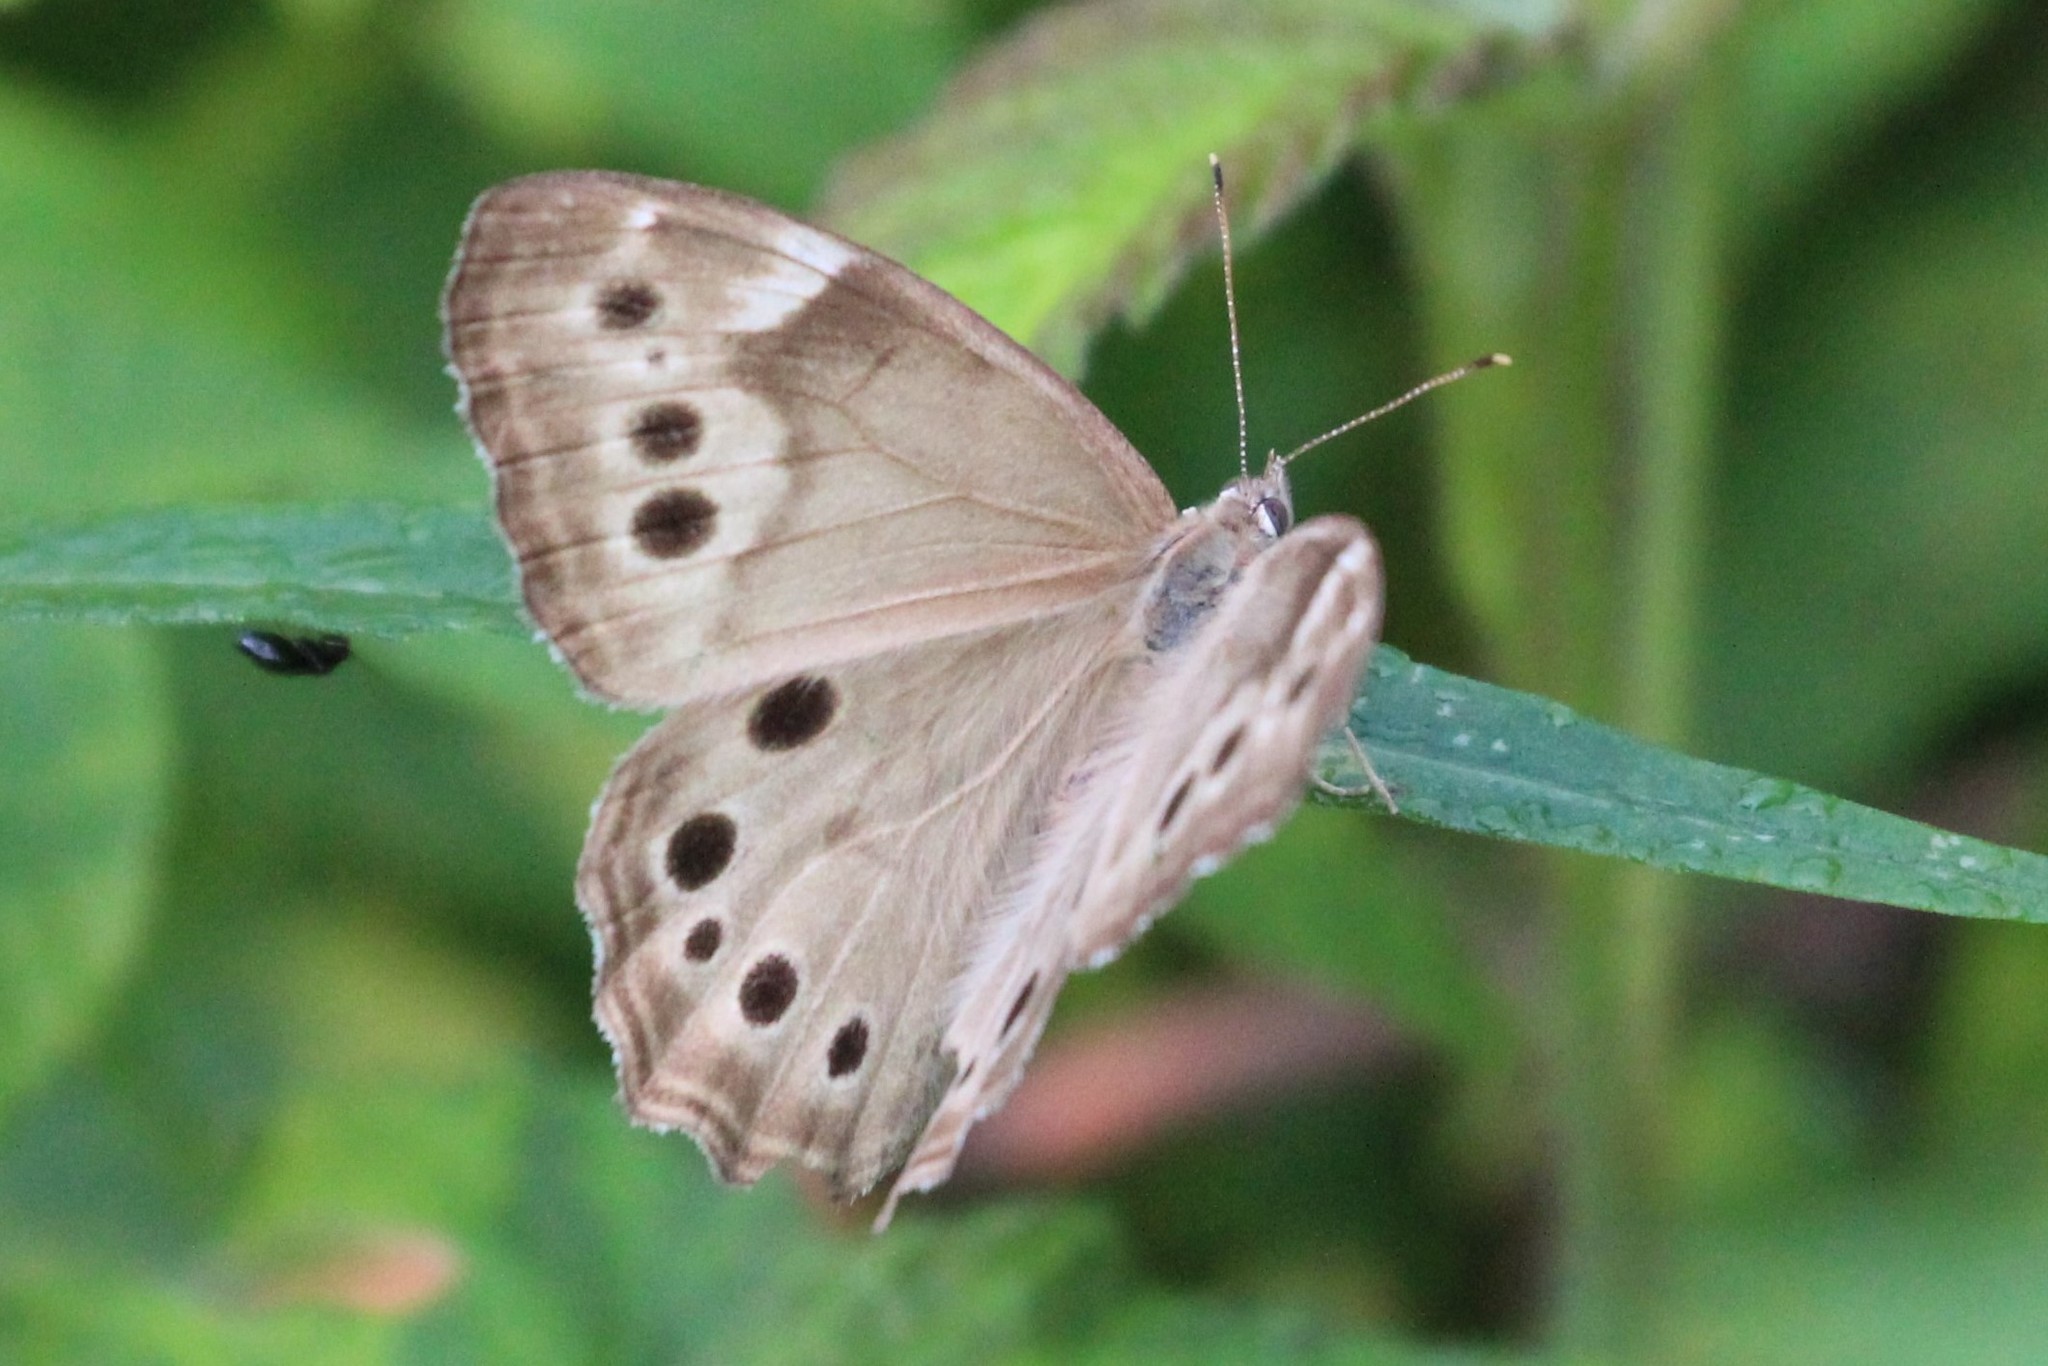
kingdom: Animalia
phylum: Arthropoda
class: Insecta
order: Lepidoptera
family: Nymphalidae
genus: Lethe
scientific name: Lethe anthedon
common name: Northern pearly-eye
